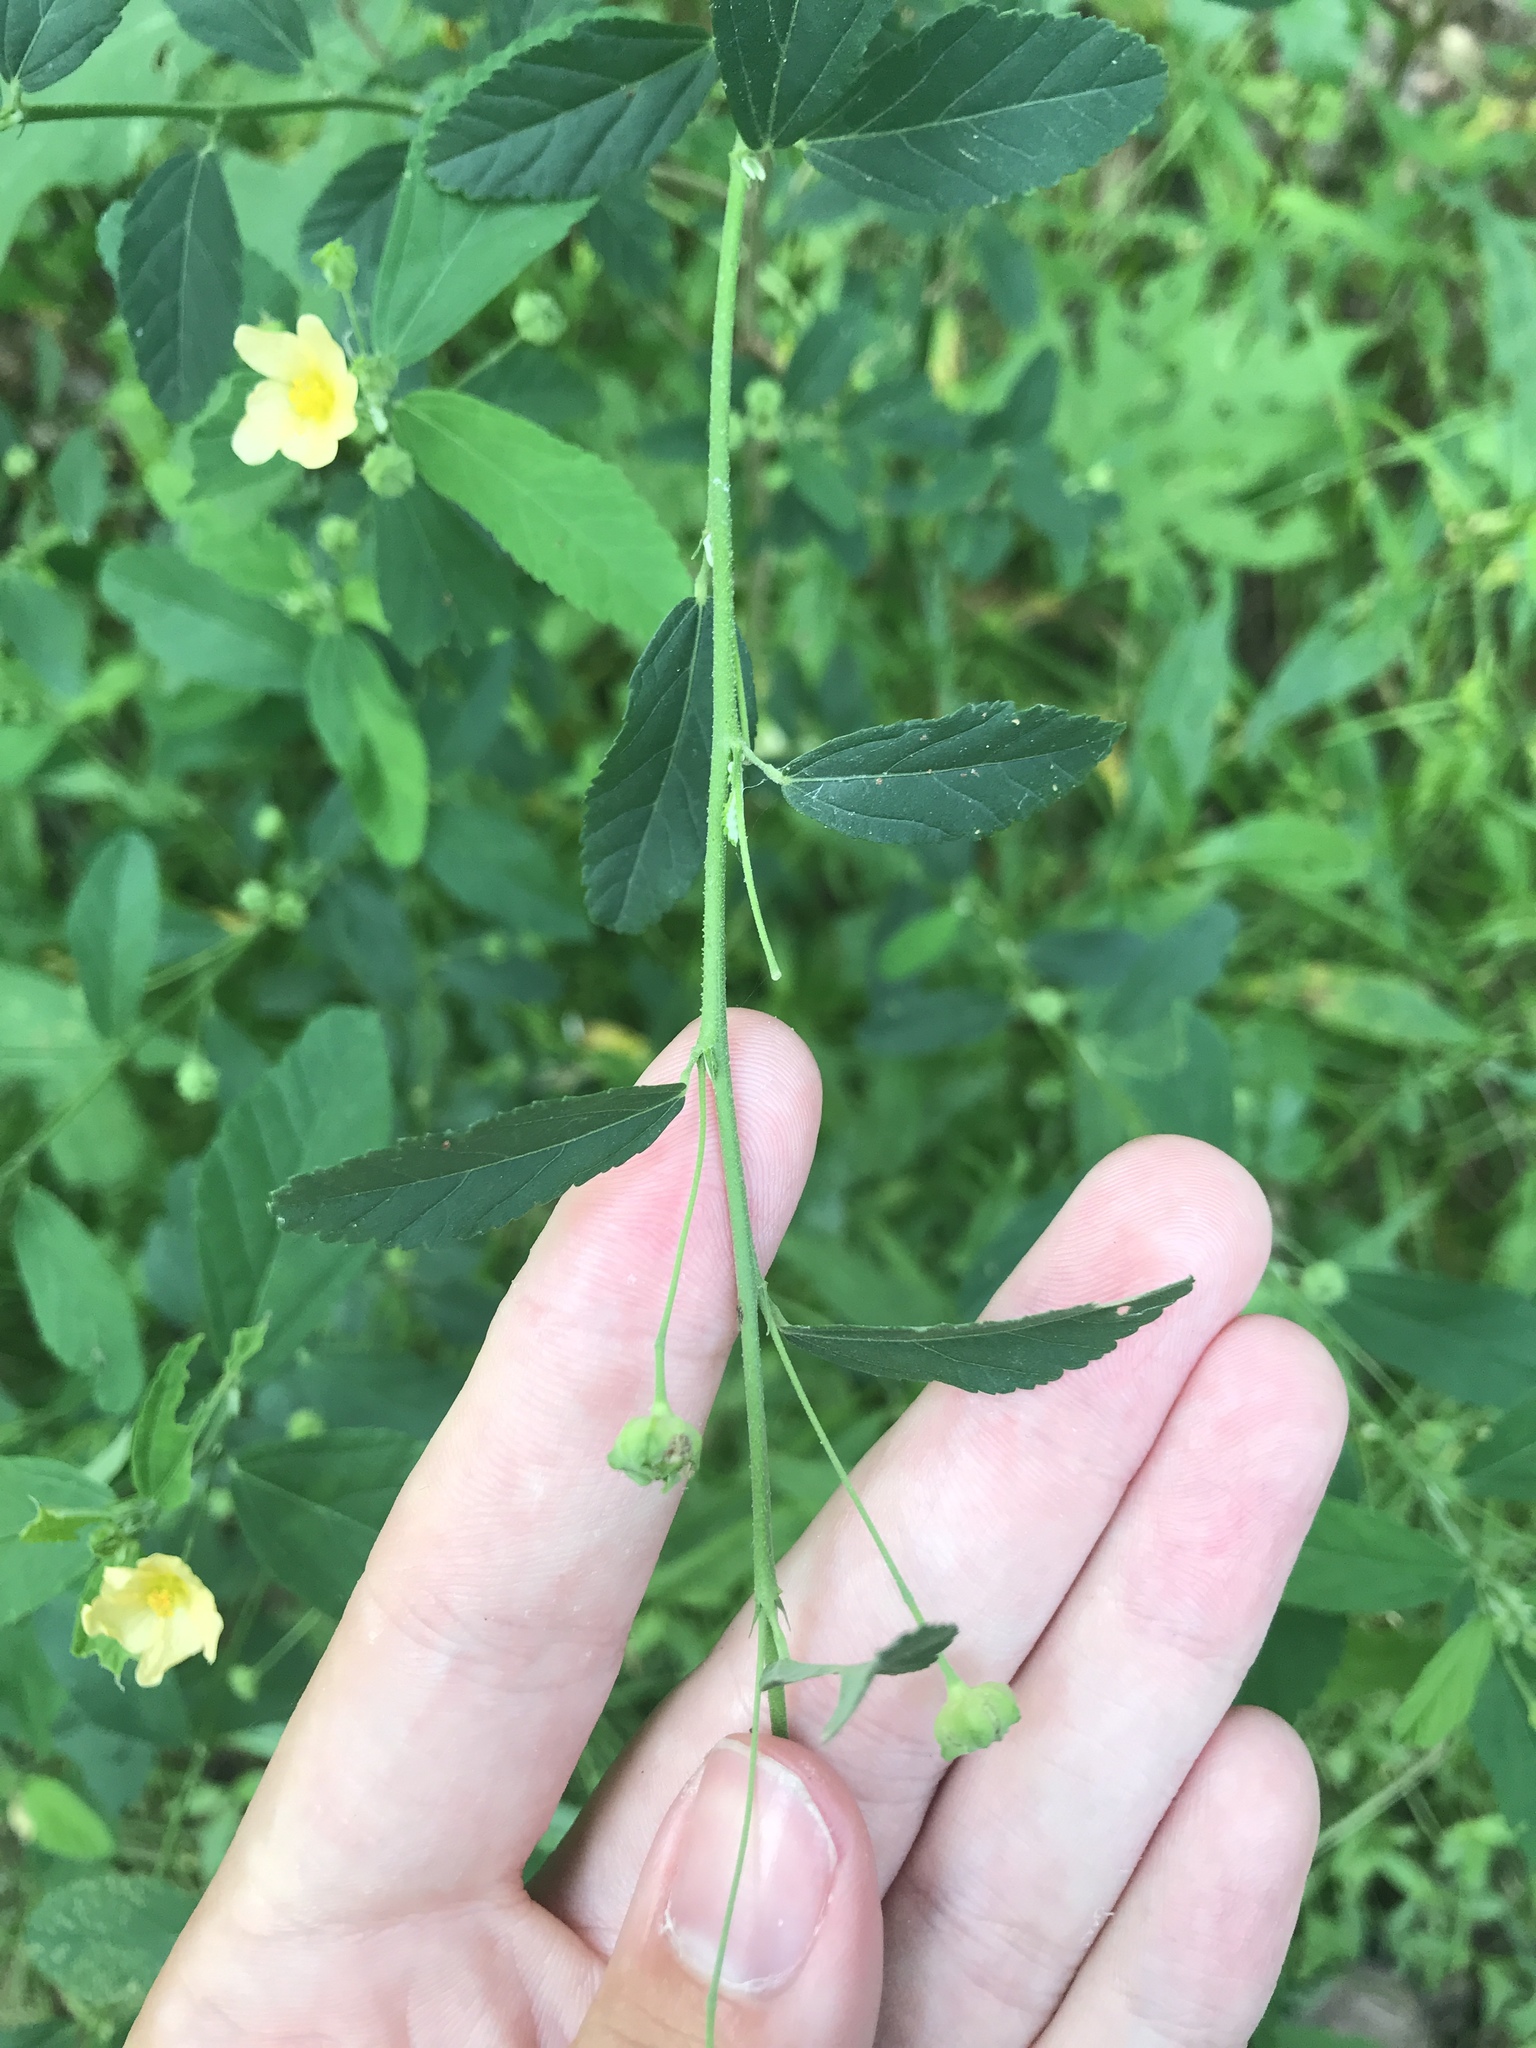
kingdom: Plantae
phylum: Tracheophyta
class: Magnoliopsida
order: Malvales
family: Malvaceae
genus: Sida
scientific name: Sida spinosa
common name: Prickly fanpetals
